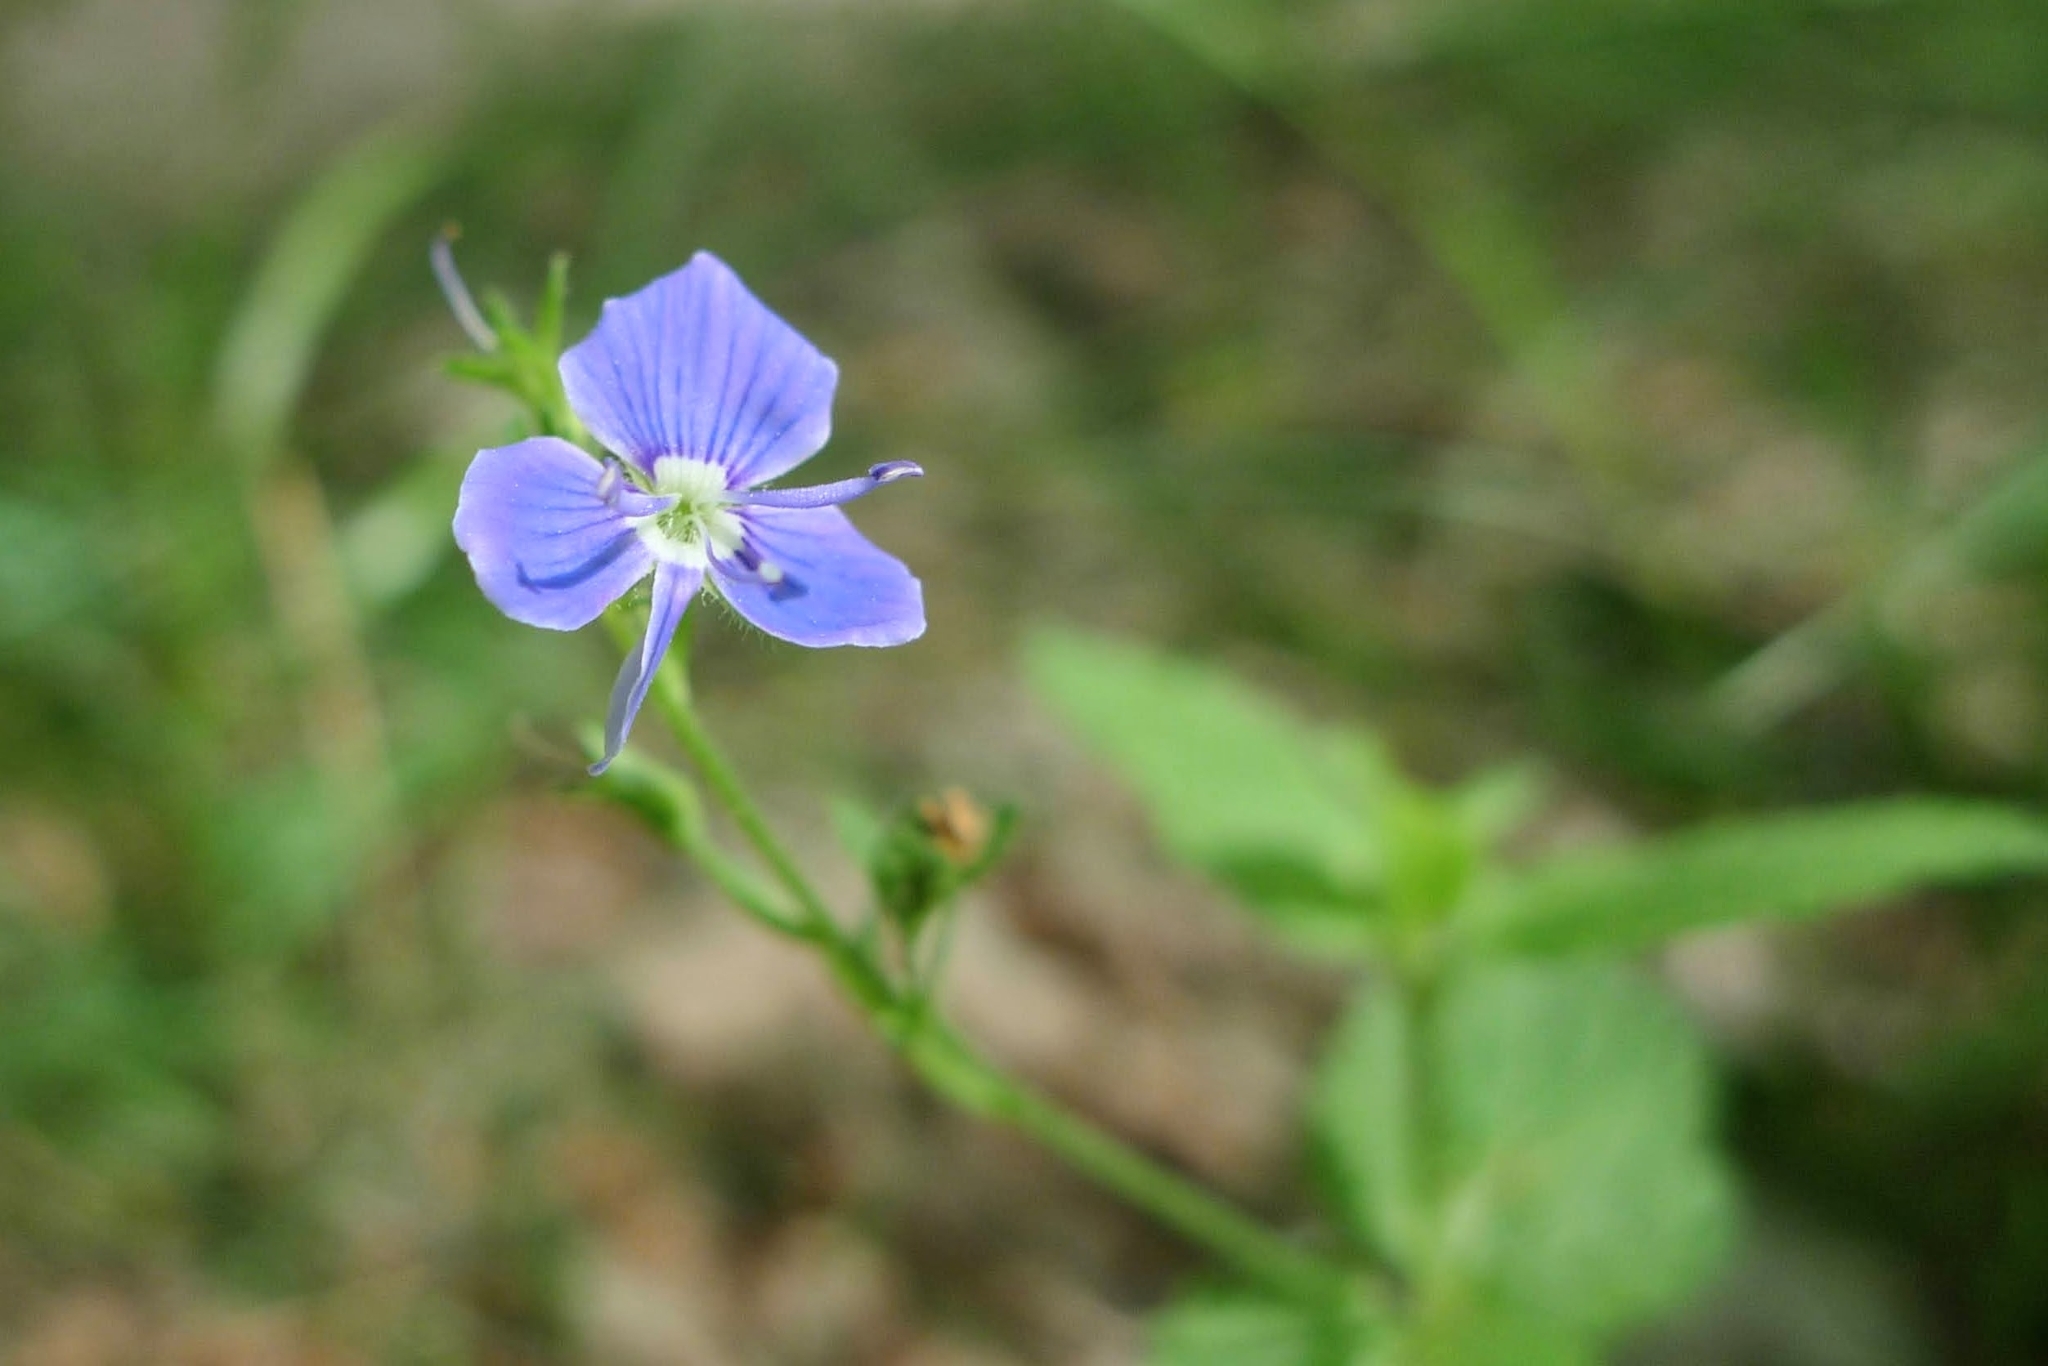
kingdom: Plantae
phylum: Tracheophyta
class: Magnoliopsida
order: Lamiales
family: Plantaginaceae
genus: Veronica
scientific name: Veronica chamaedrys
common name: Germander speedwell
